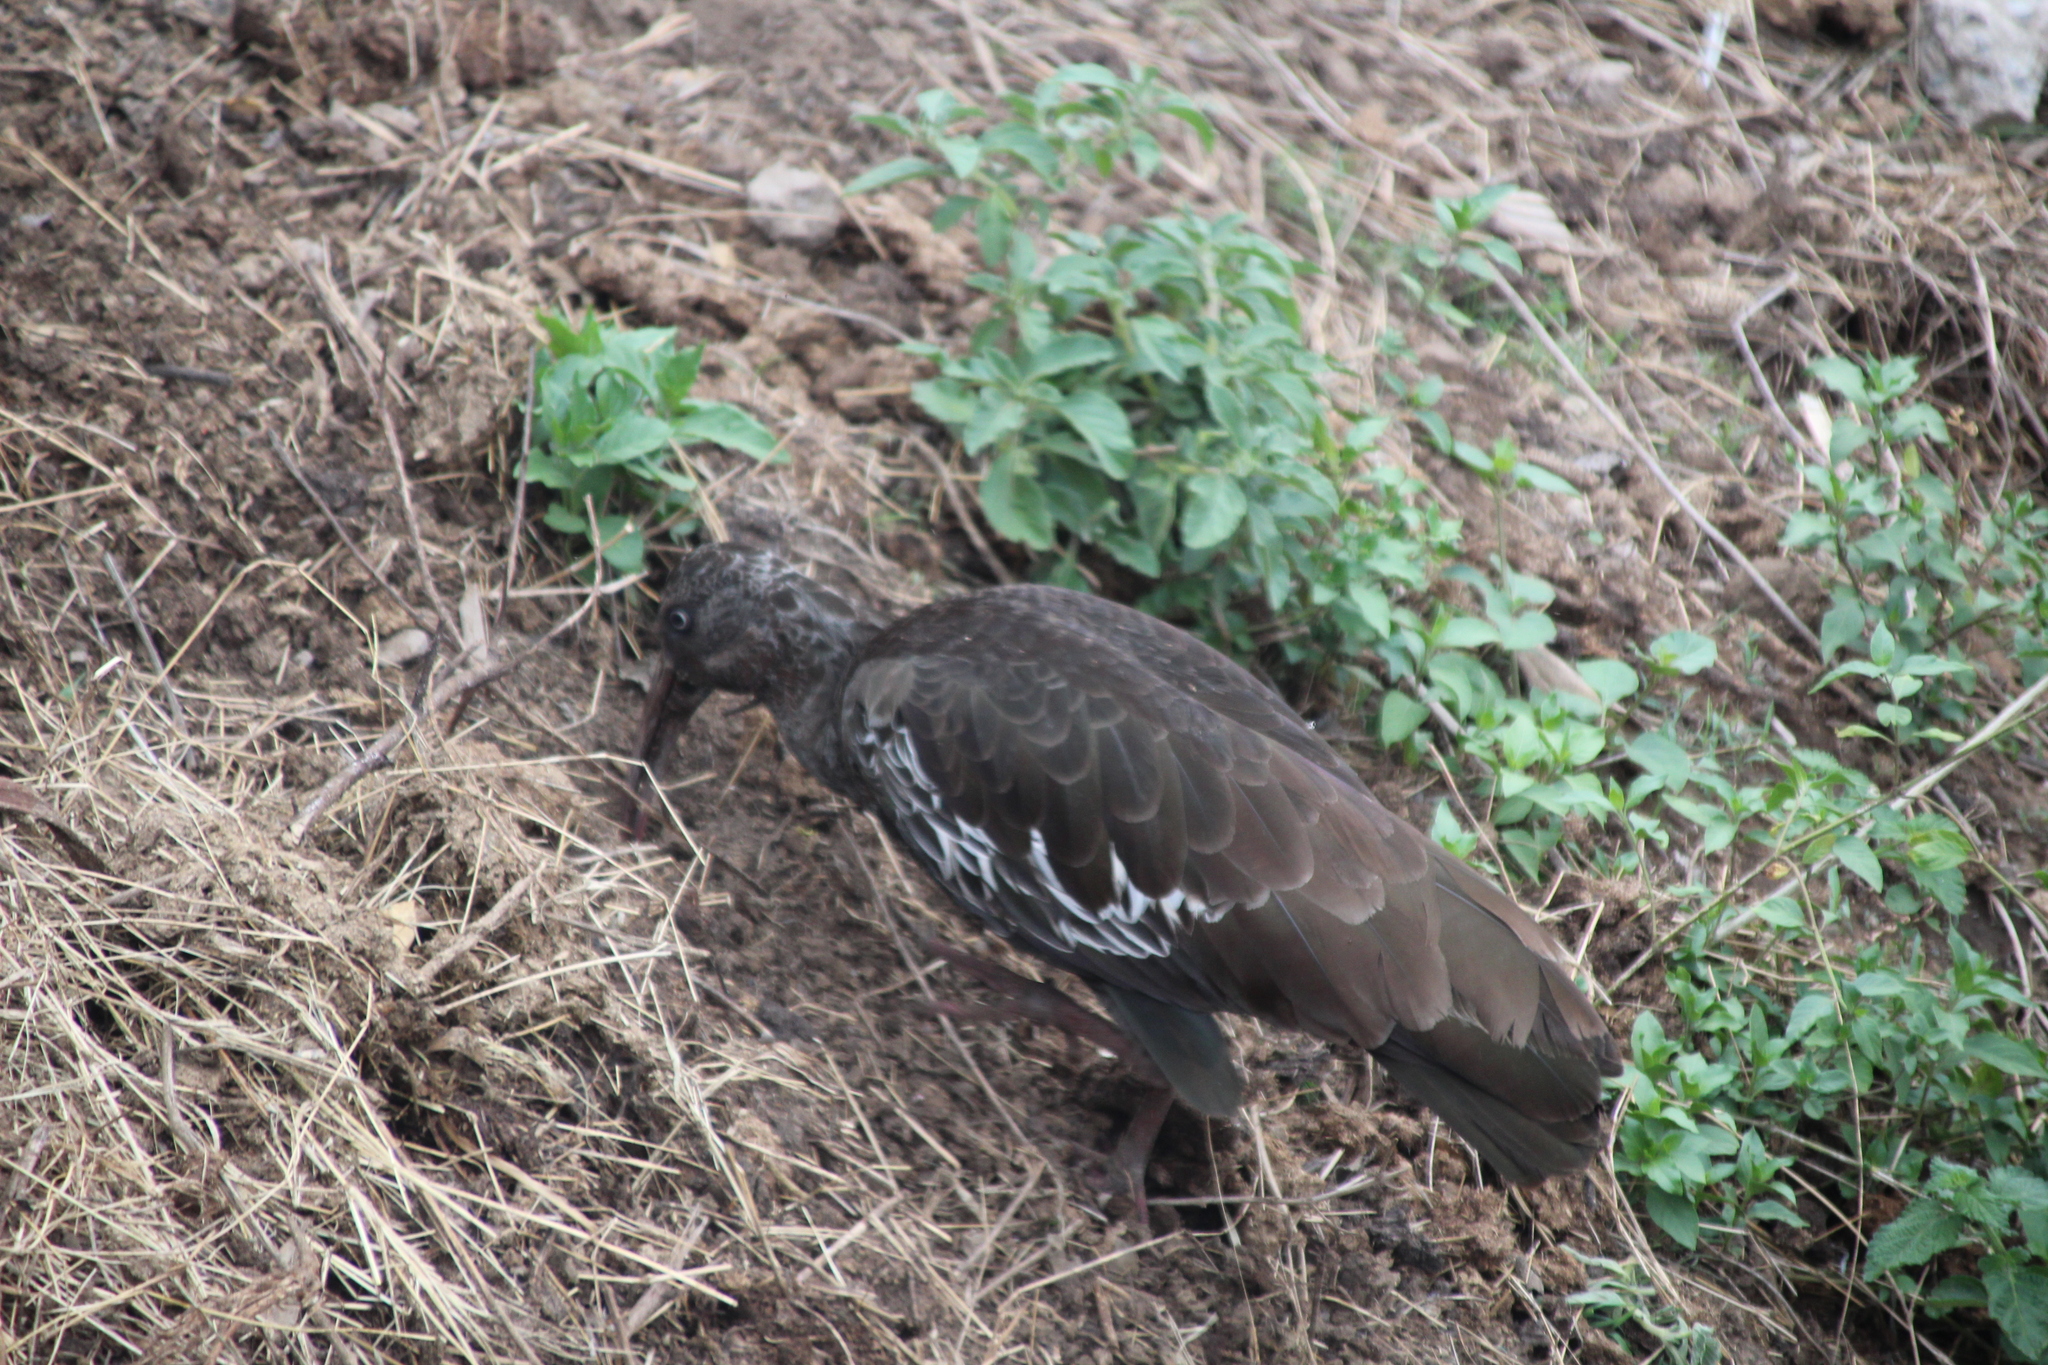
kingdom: Animalia
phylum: Chordata
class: Aves
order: Pelecaniformes
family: Threskiornithidae
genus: Bostrychia
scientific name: Bostrychia carunculata
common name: Wattled ibis
